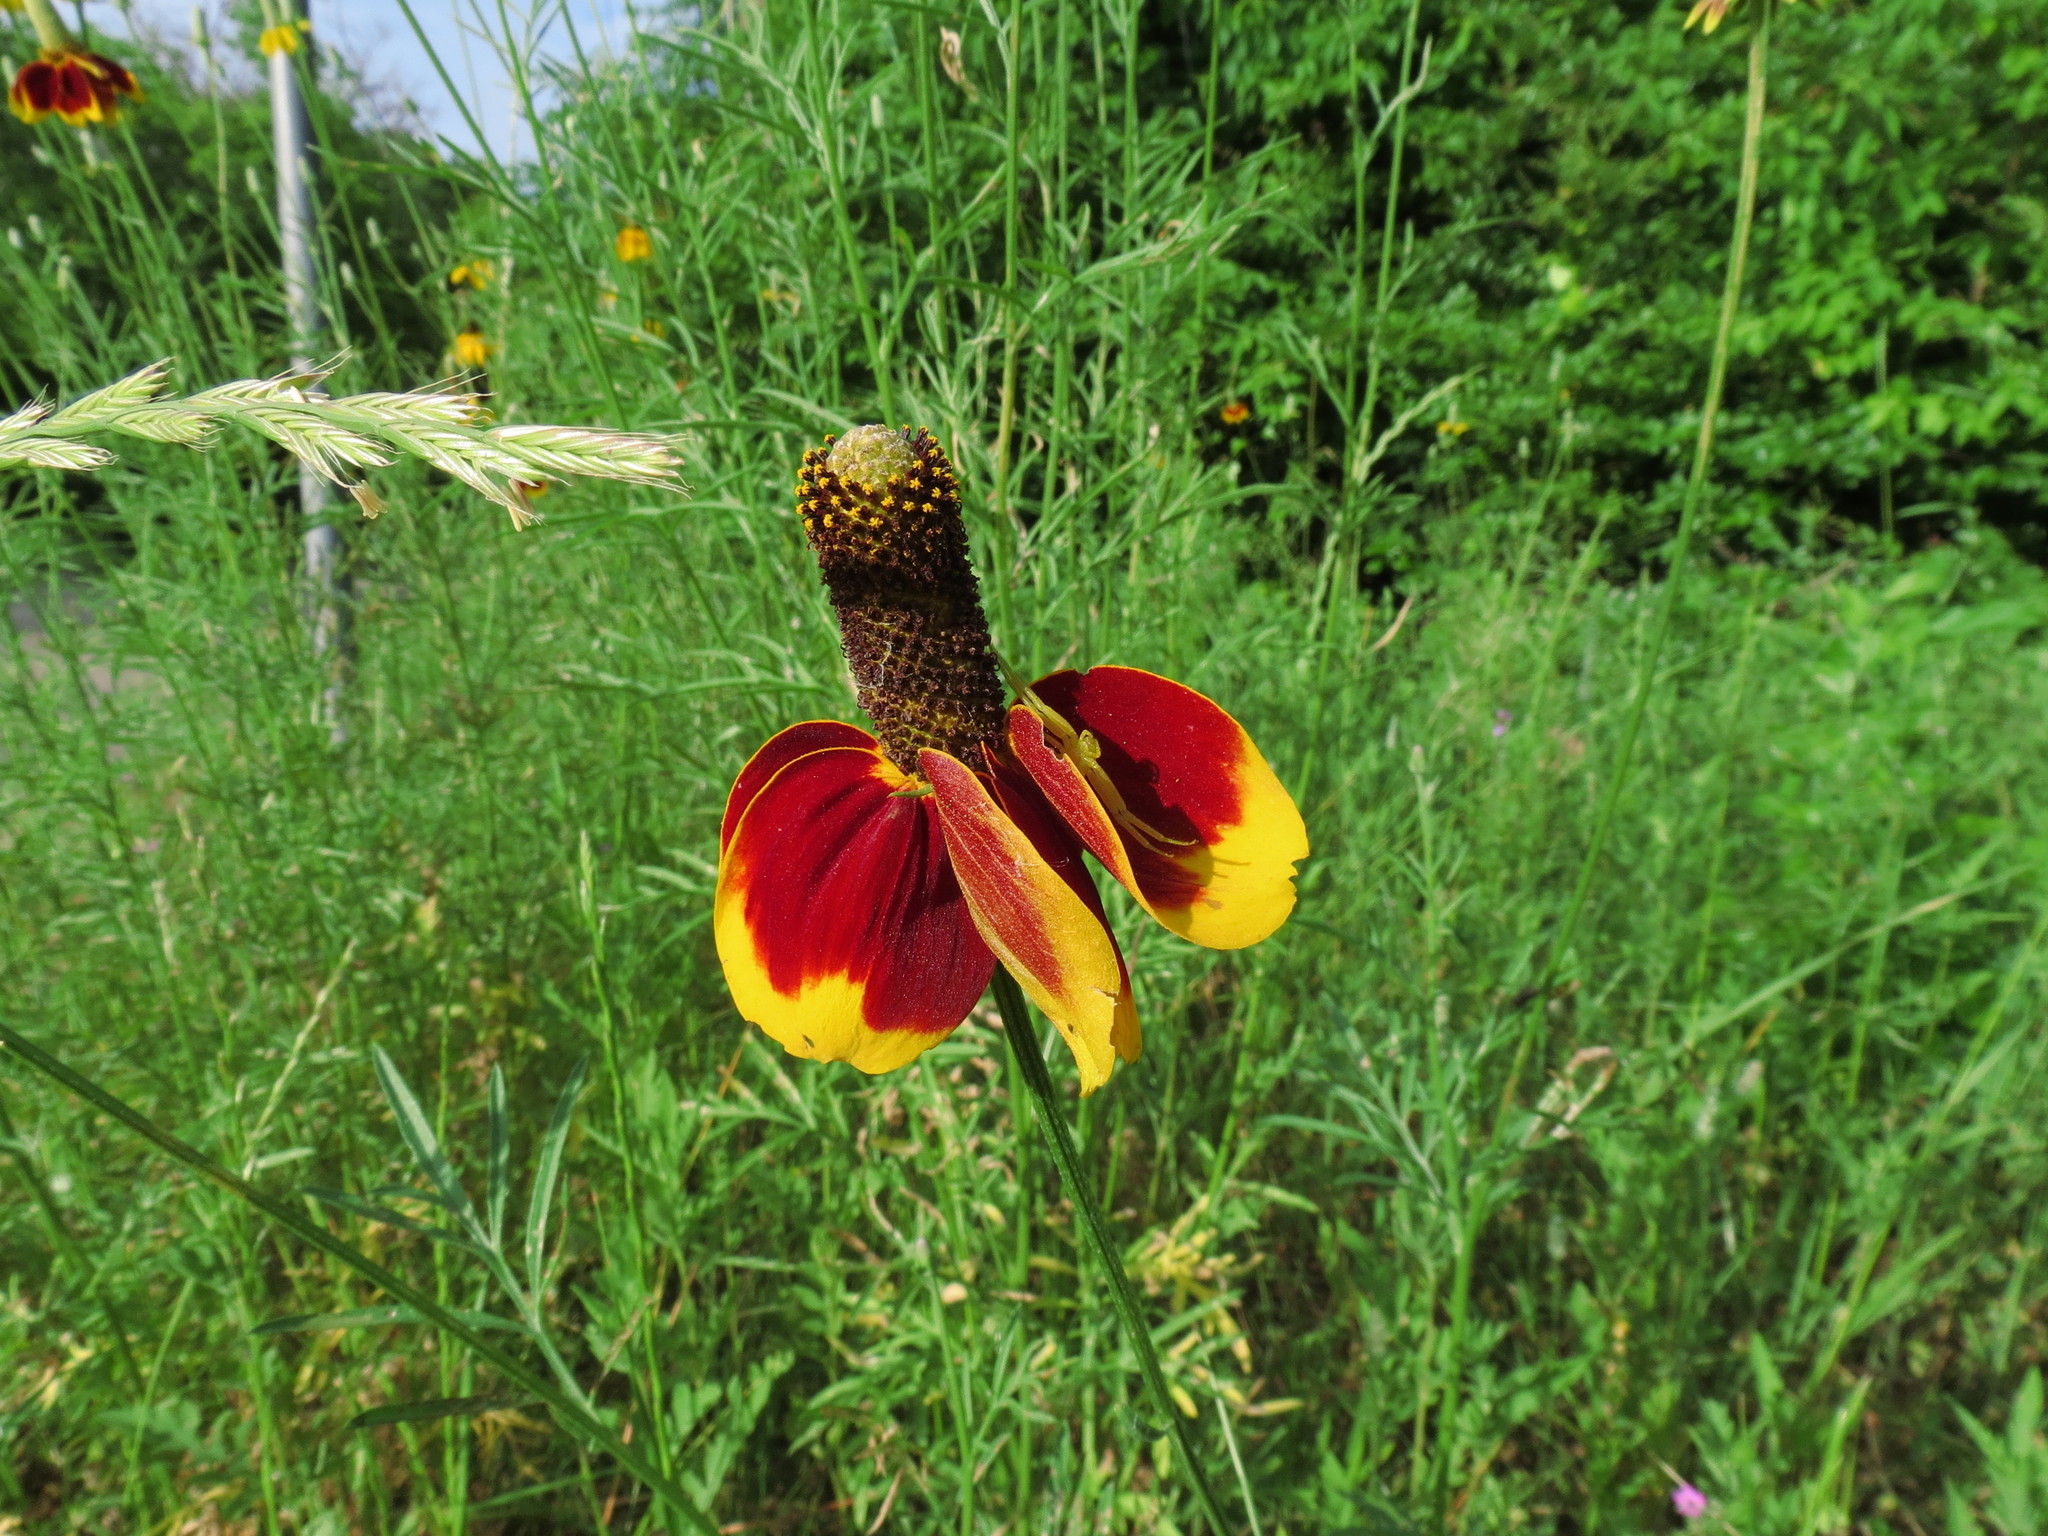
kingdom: Plantae
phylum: Tracheophyta
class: Magnoliopsida
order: Asterales
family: Asteraceae
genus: Ratibida
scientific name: Ratibida columnifera
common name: Prairie coneflower
